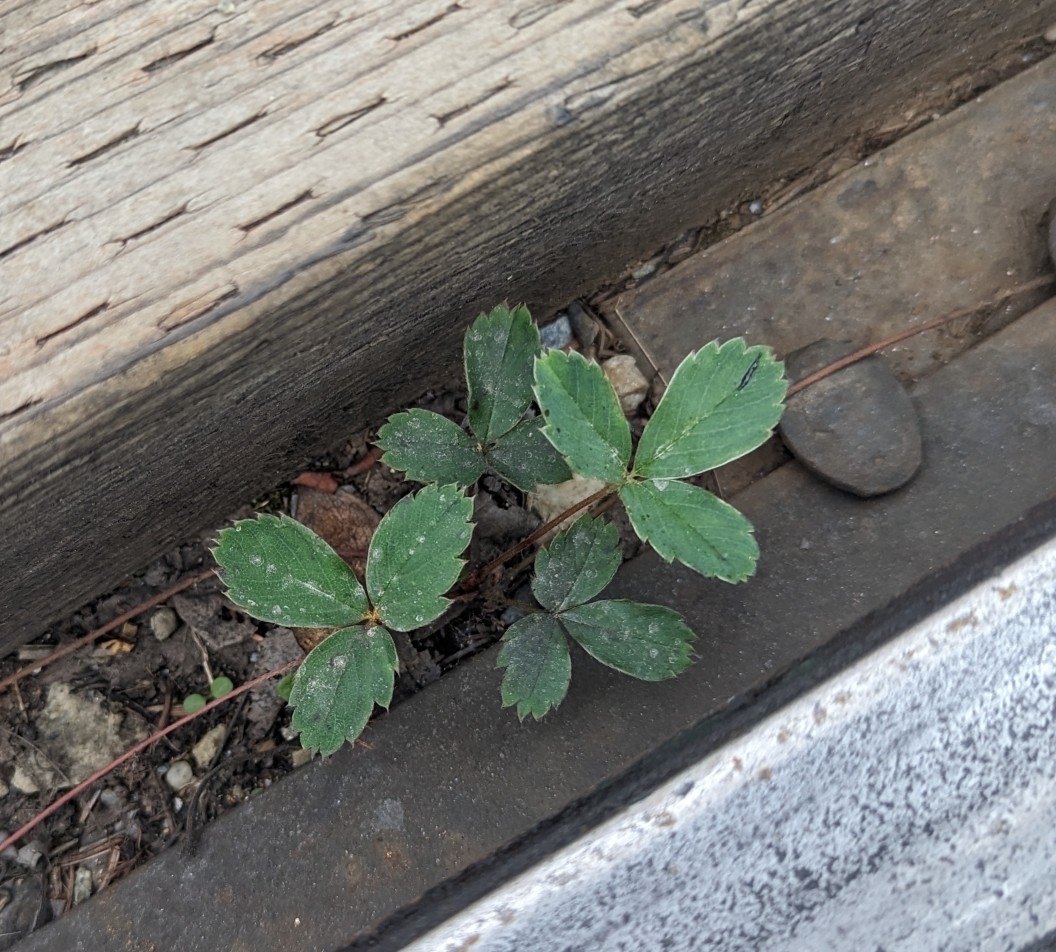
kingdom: Plantae
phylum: Tracheophyta
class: Magnoliopsida
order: Rosales
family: Rosaceae
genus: Fragaria
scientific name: Fragaria virginiana
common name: Thickleaved wild strawberry
